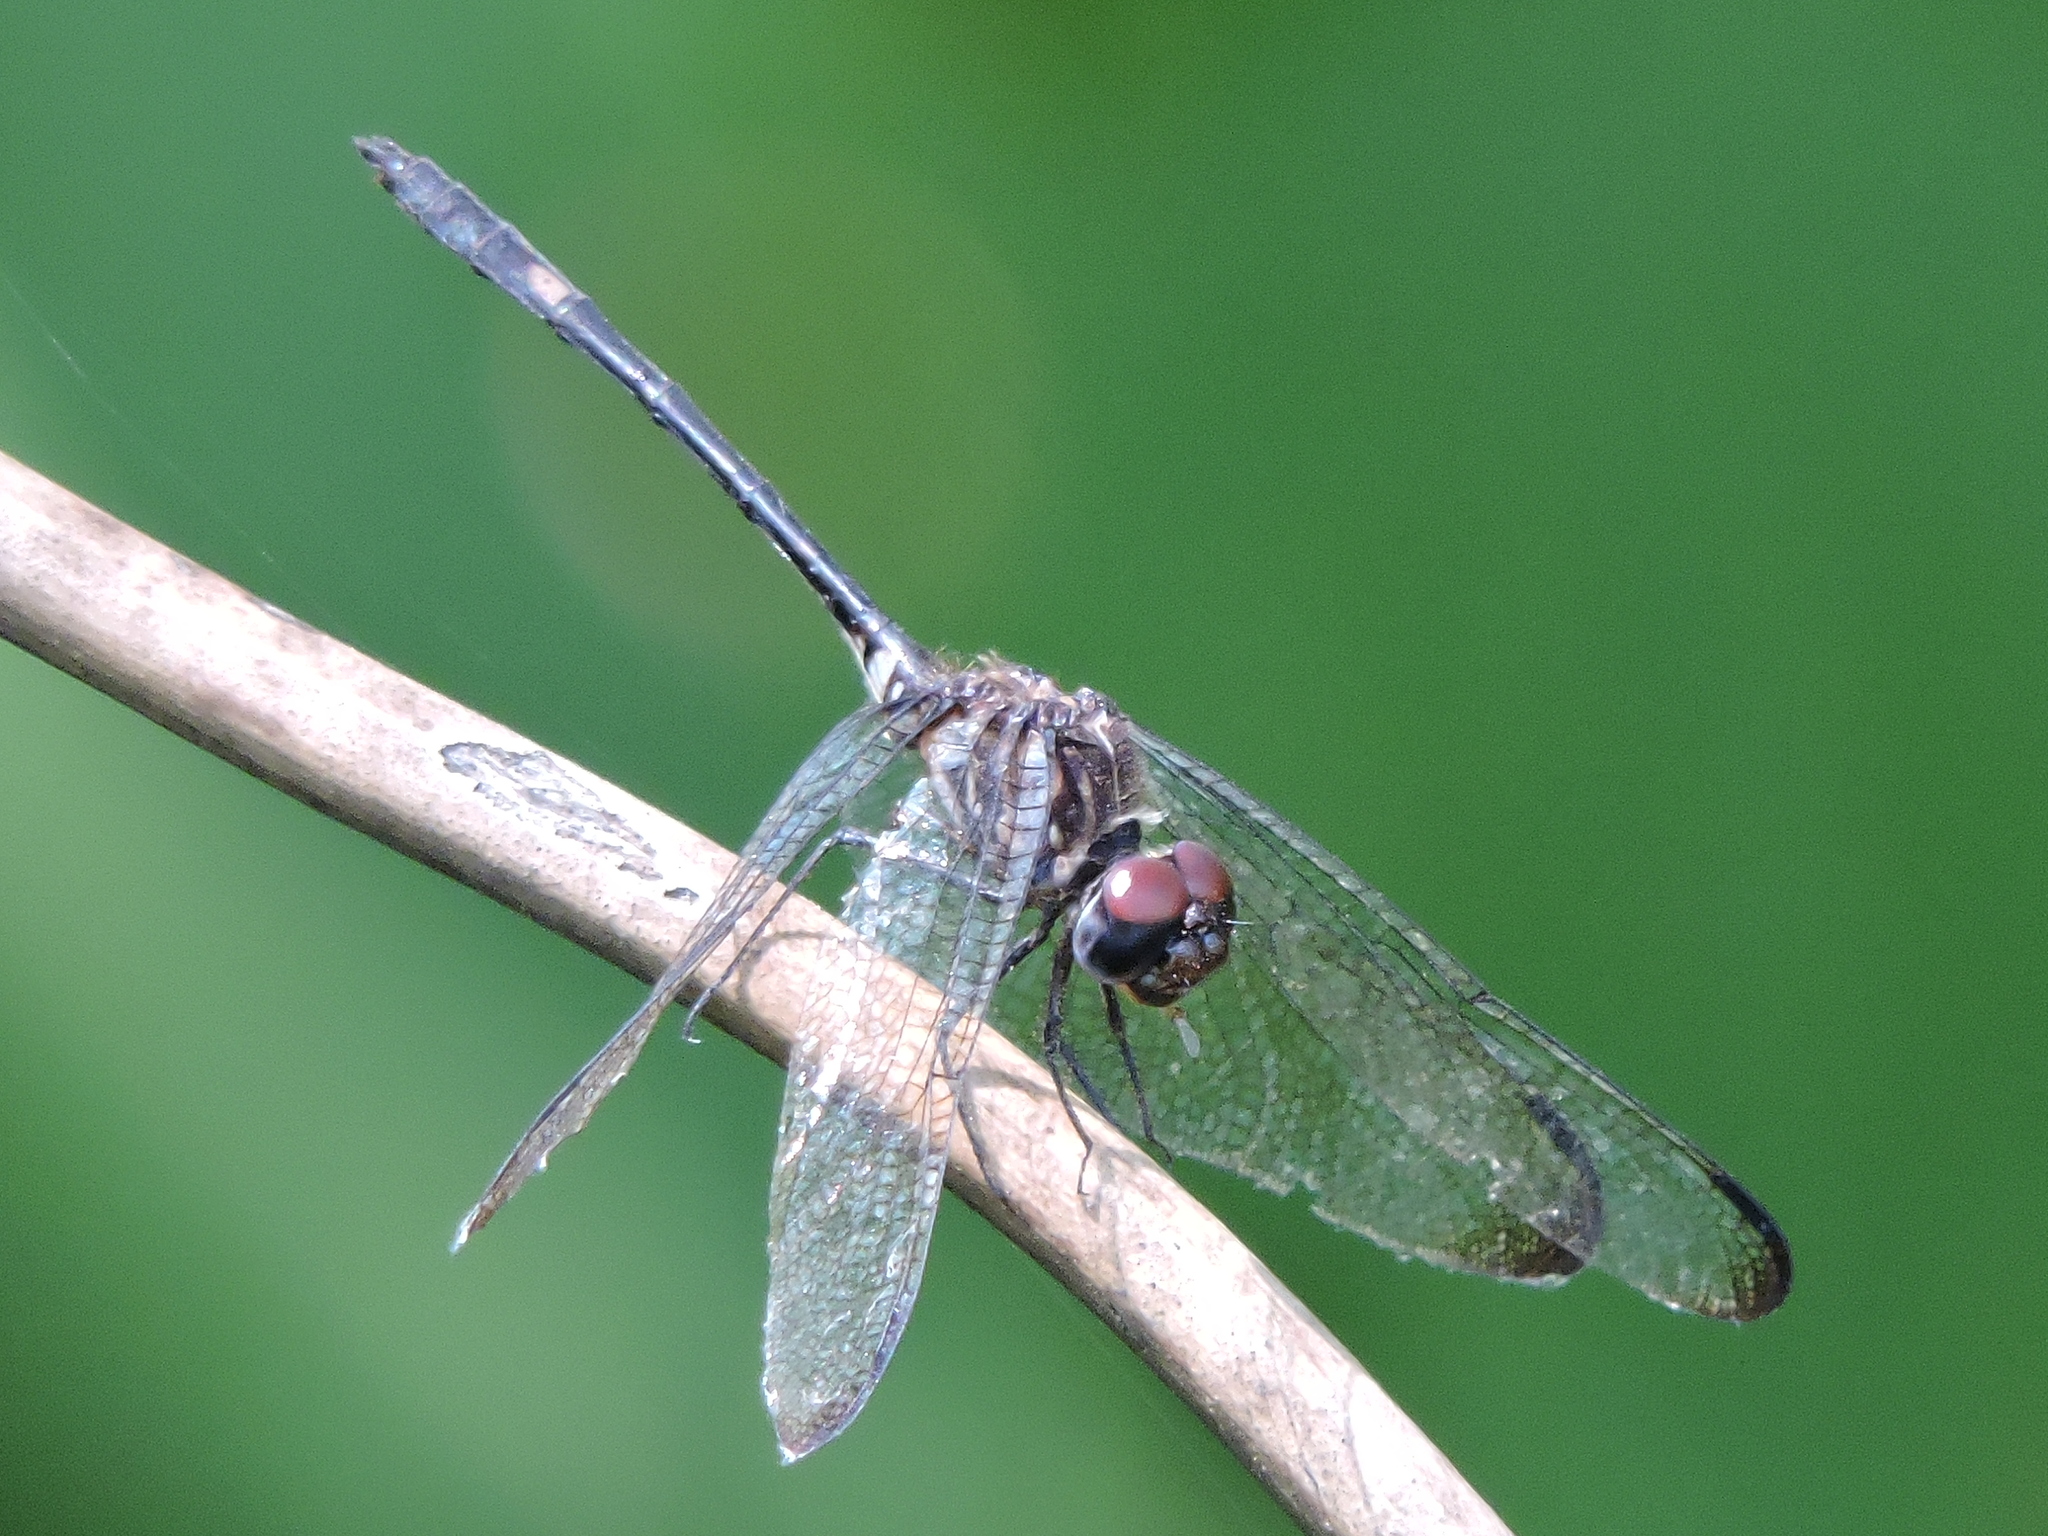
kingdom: Animalia
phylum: Arthropoda
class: Insecta
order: Odonata
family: Libellulidae
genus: Dythemis
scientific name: Dythemis velox
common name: Swift setwing
